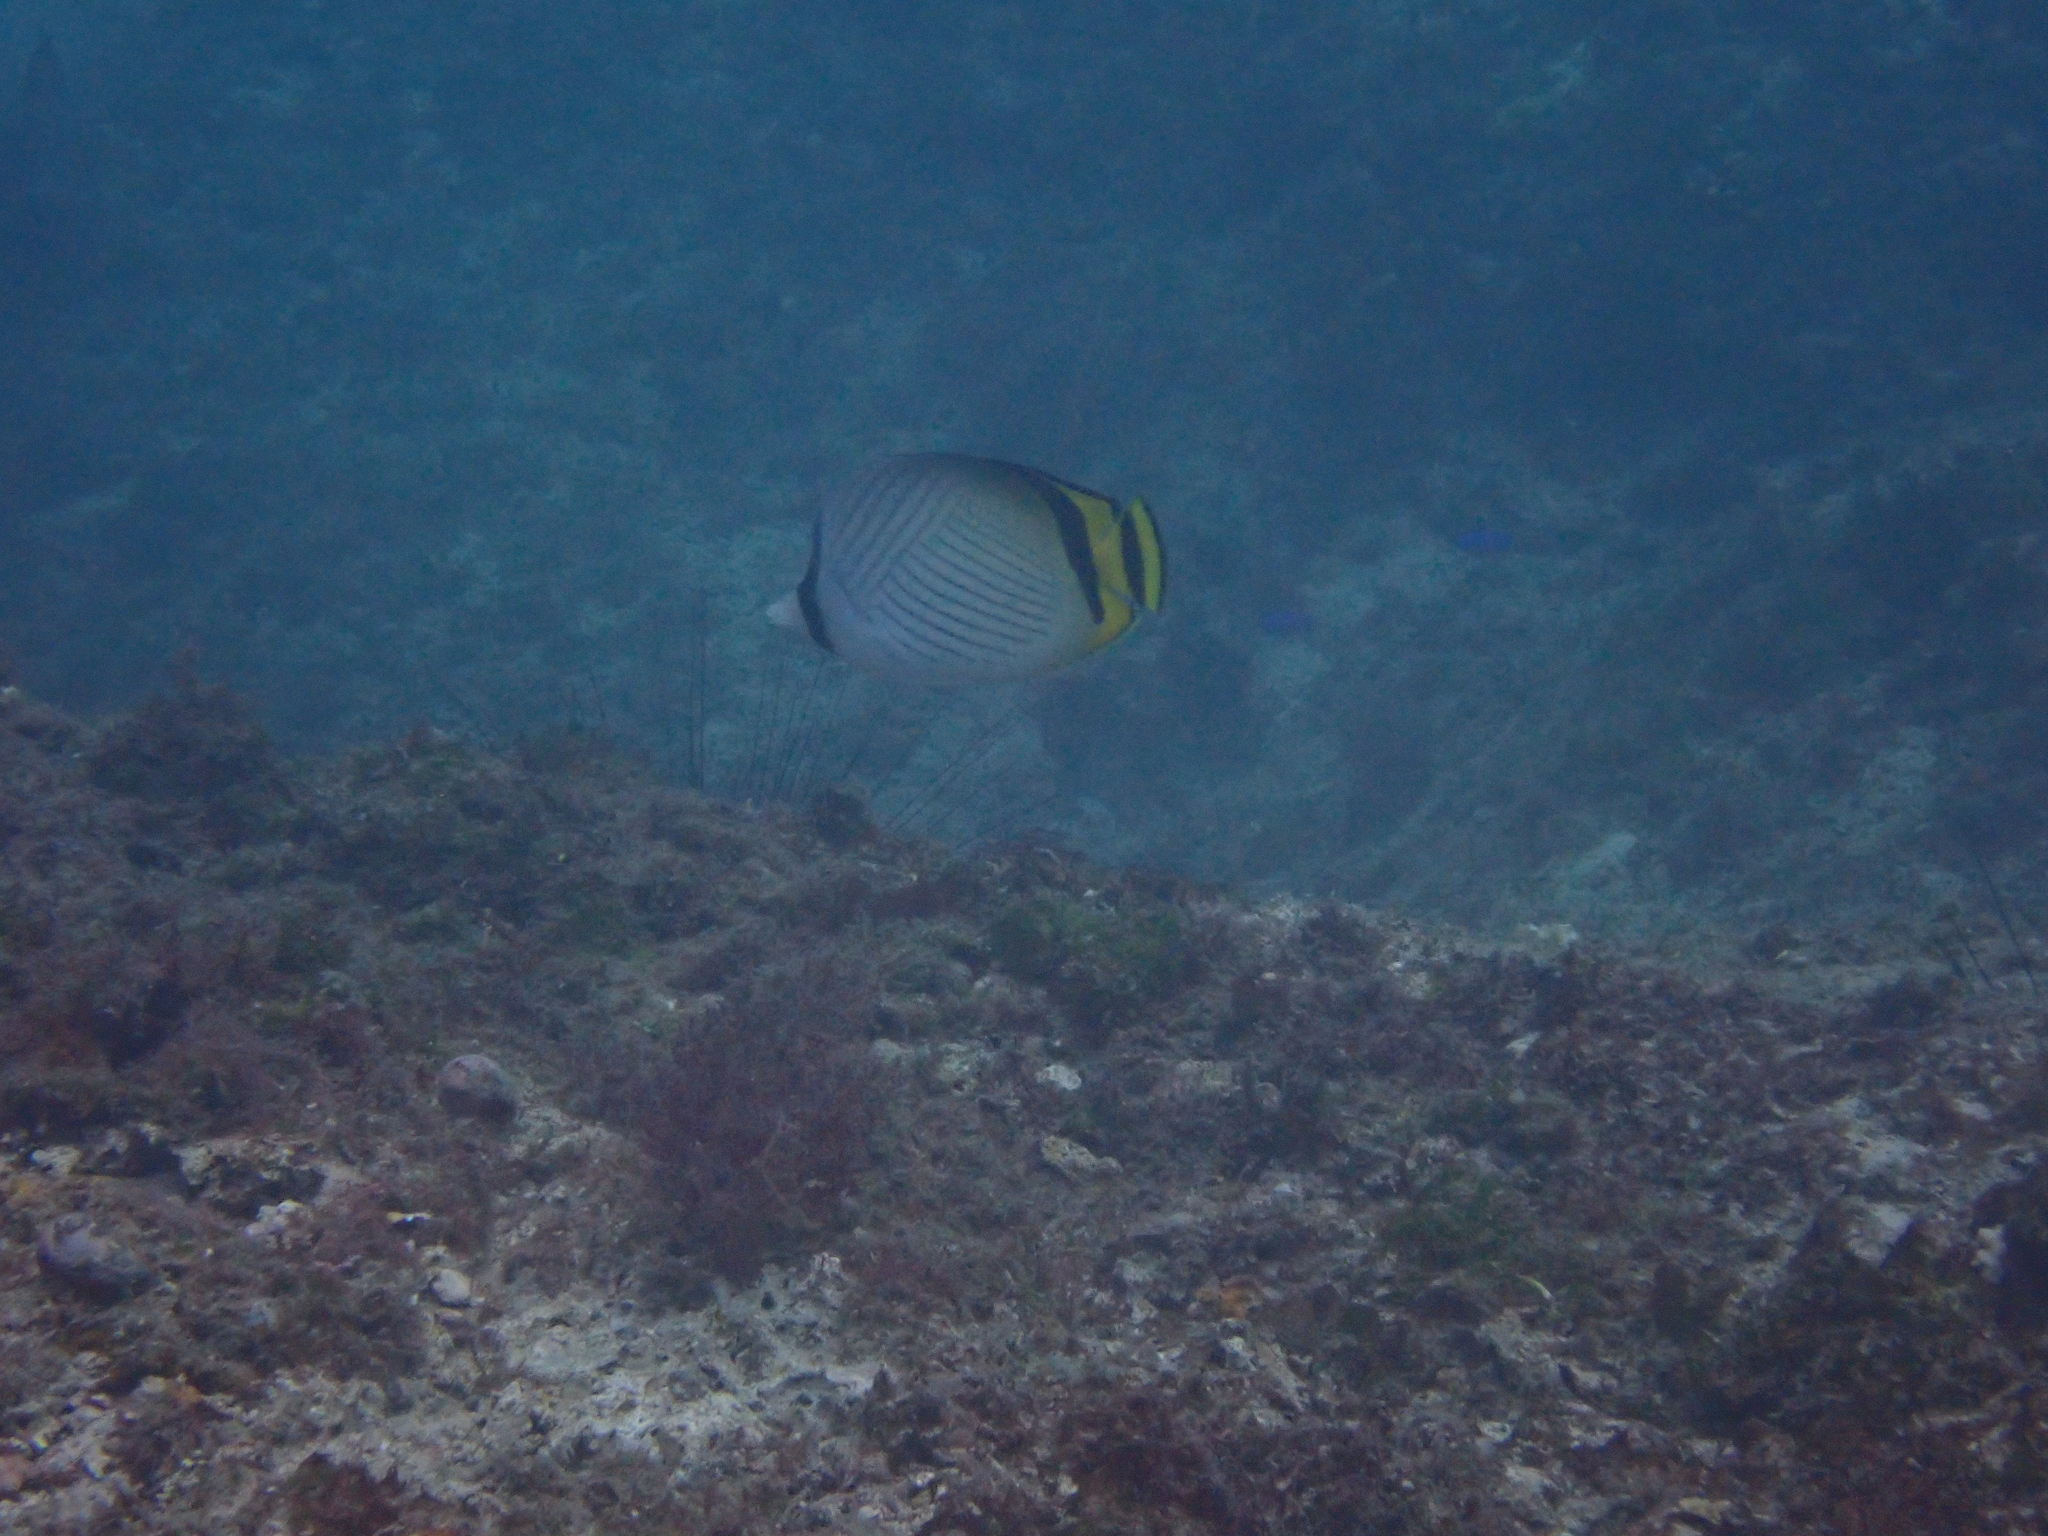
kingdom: Animalia
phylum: Chordata
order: Perciformes
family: Chaetodontidae
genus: Chaetodon
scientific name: Chaetodon vagabundus
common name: Vagabond butterflyfish
